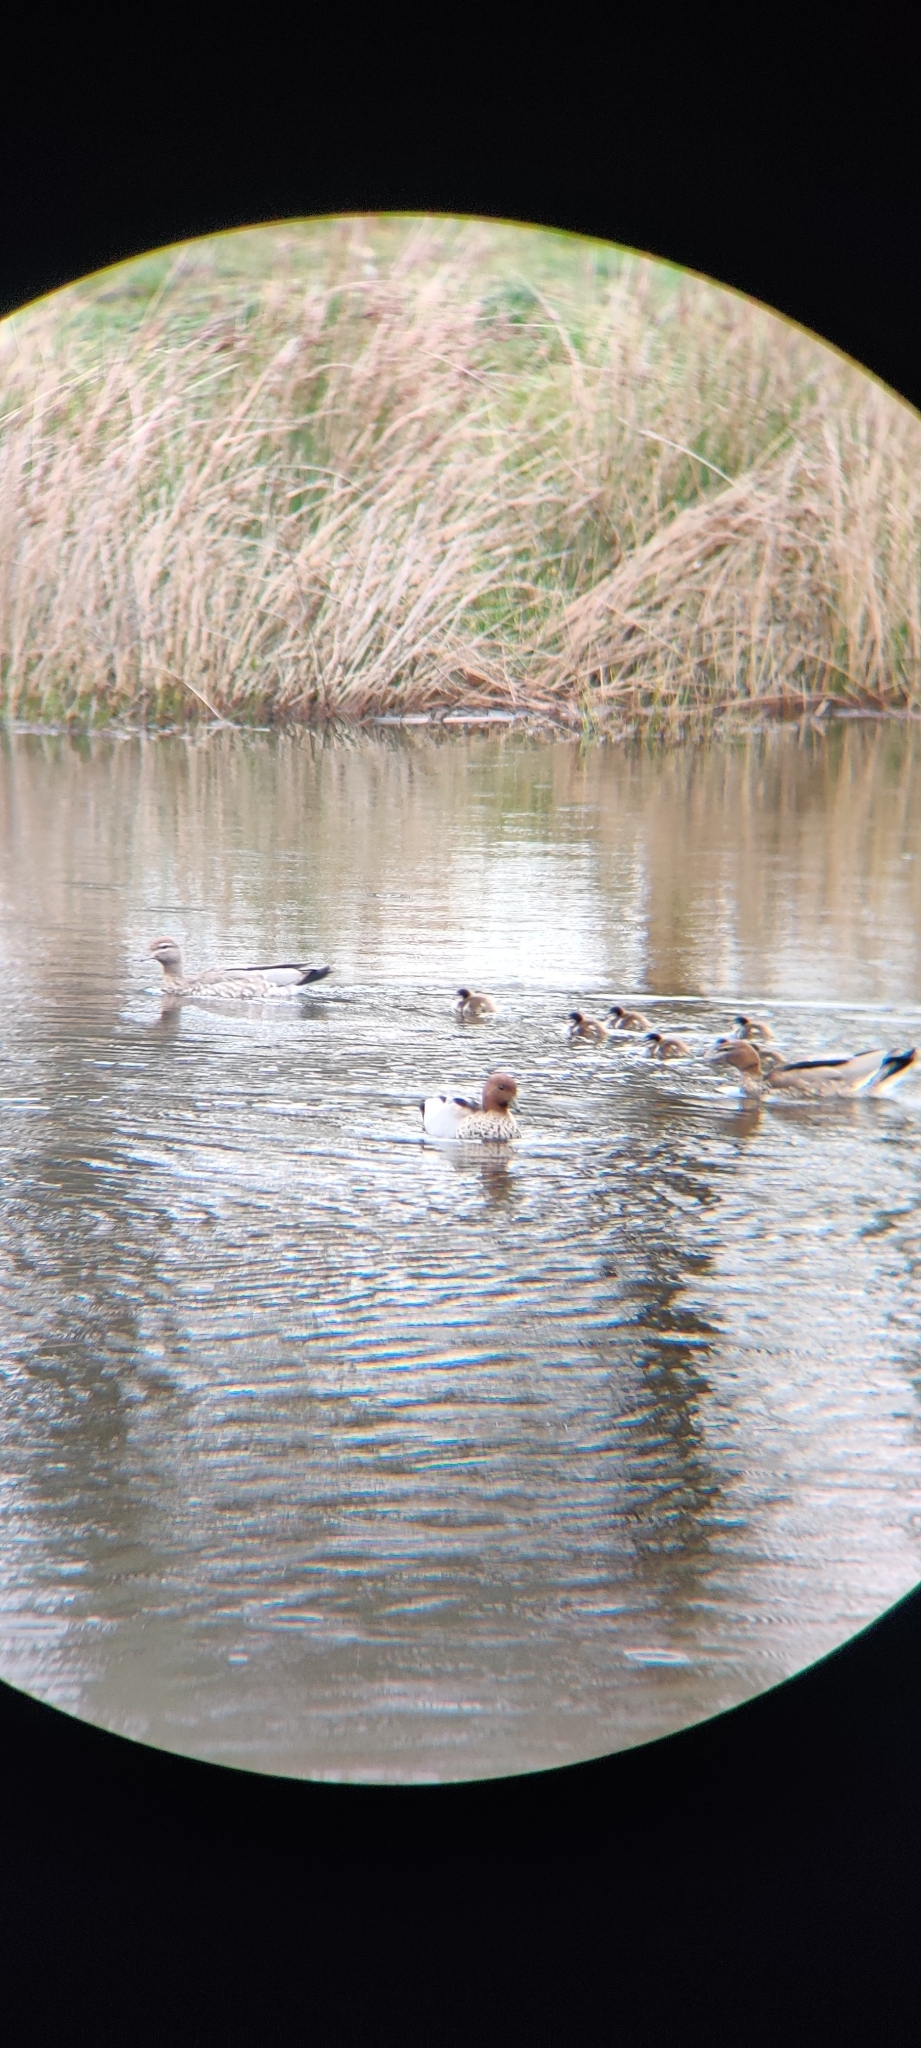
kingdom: Animalia
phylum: Chordata
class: Aves
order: Anseriformes
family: Anatidae
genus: Chenonetta
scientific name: Chenonetta jubata
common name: Maned duck
